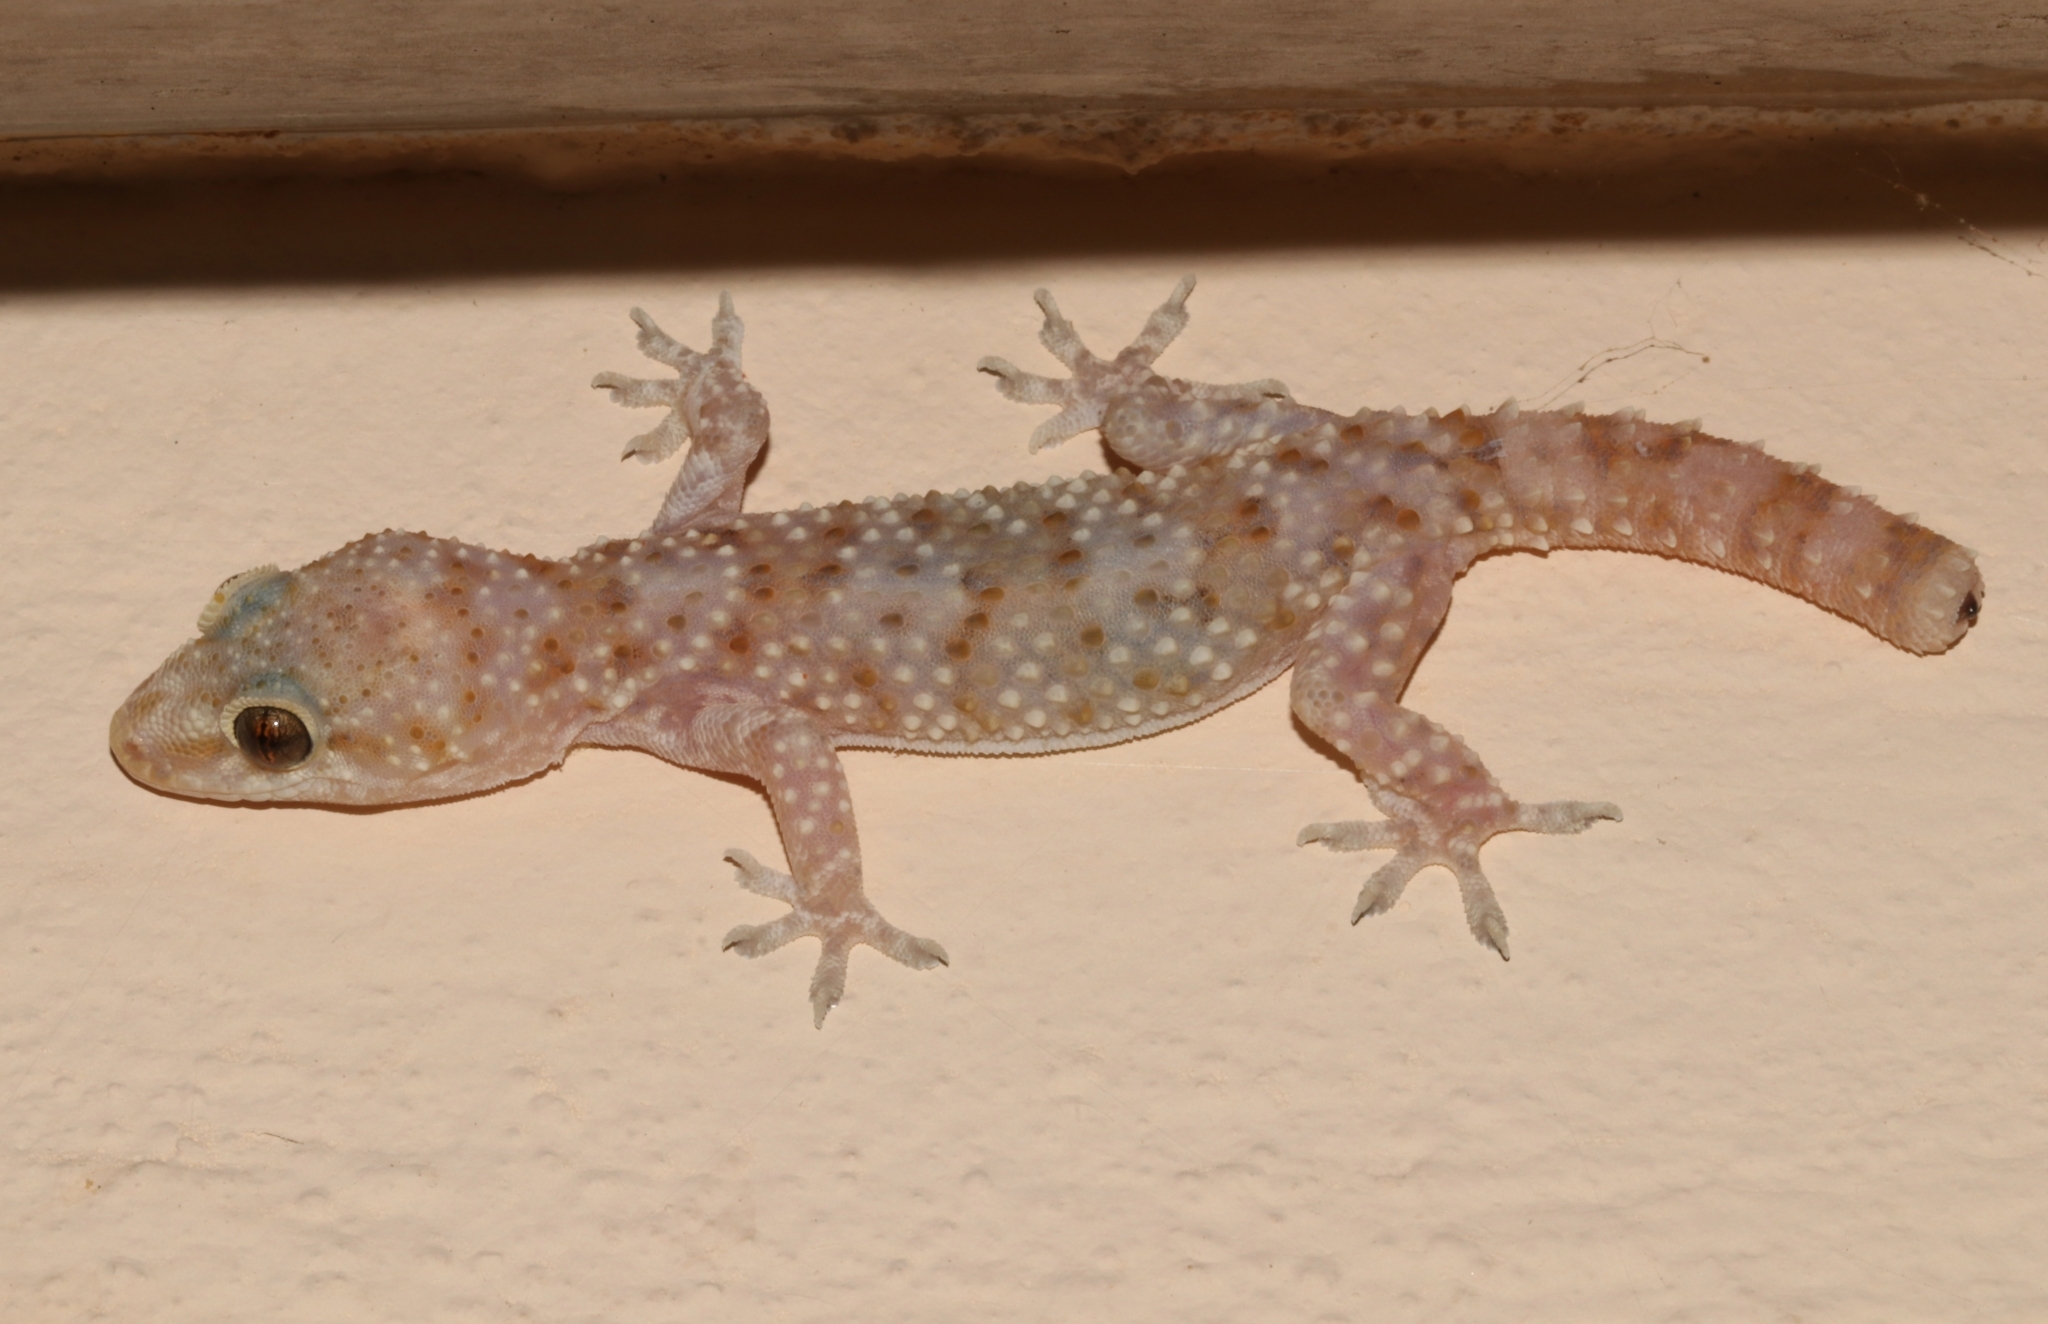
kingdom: Animalia
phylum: Chordata
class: Squamata
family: Gekkonidae
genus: Hemidactylus
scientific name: Hemidactylus turcicus
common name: Turkish gecko
